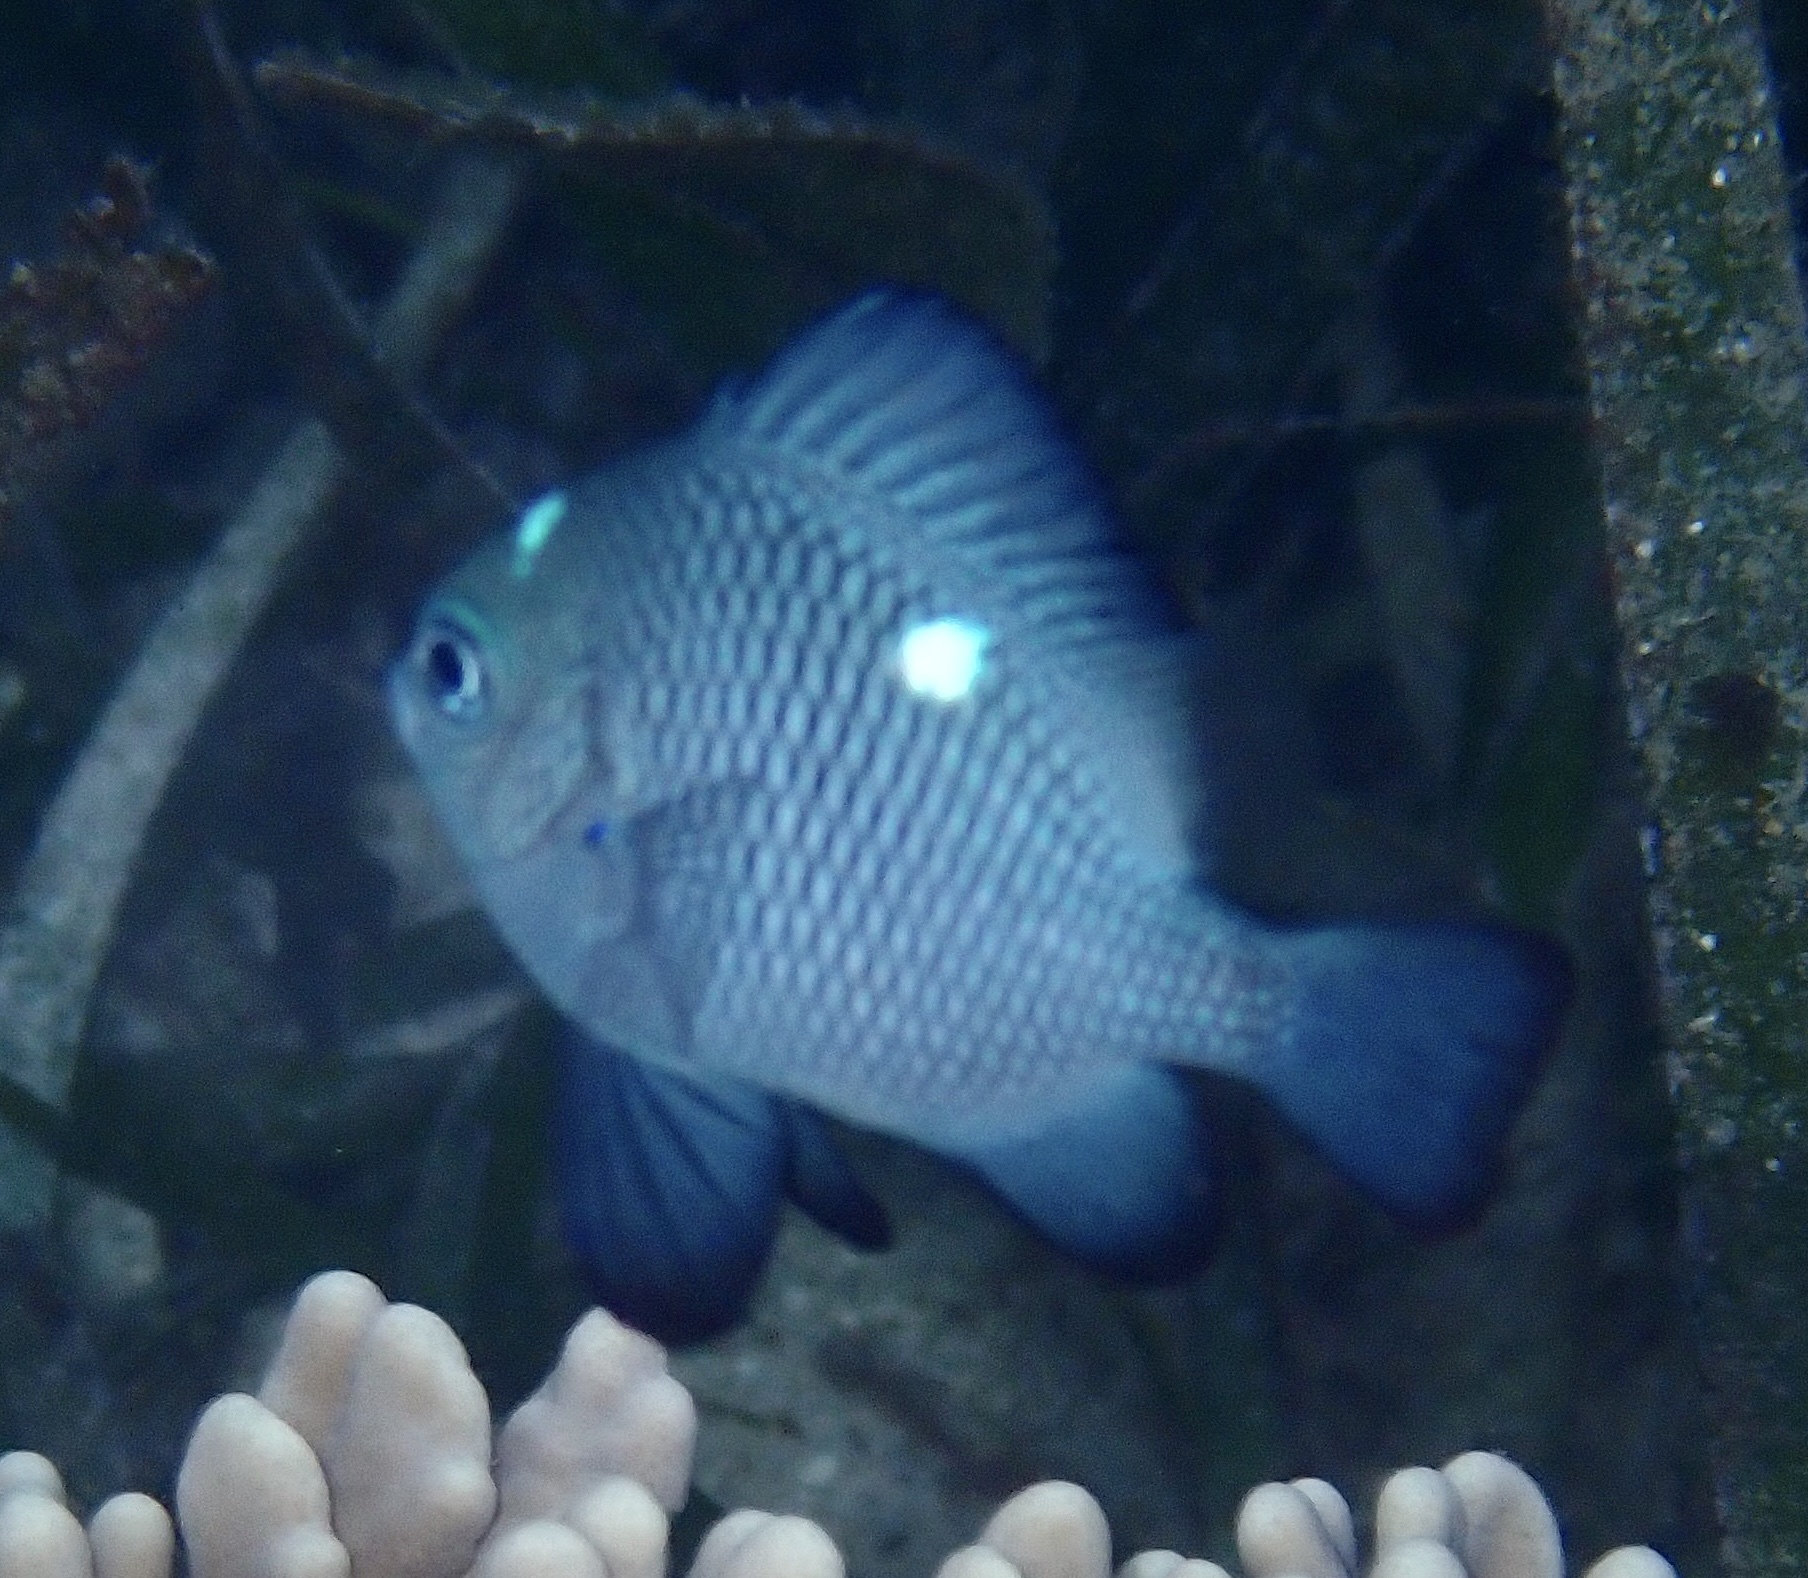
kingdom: Animalia
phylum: Chordata
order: Perciformes
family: Pomacentridae
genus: Dascyllus
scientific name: Dascyllus trimaculatus
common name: Threespot dascyllus
